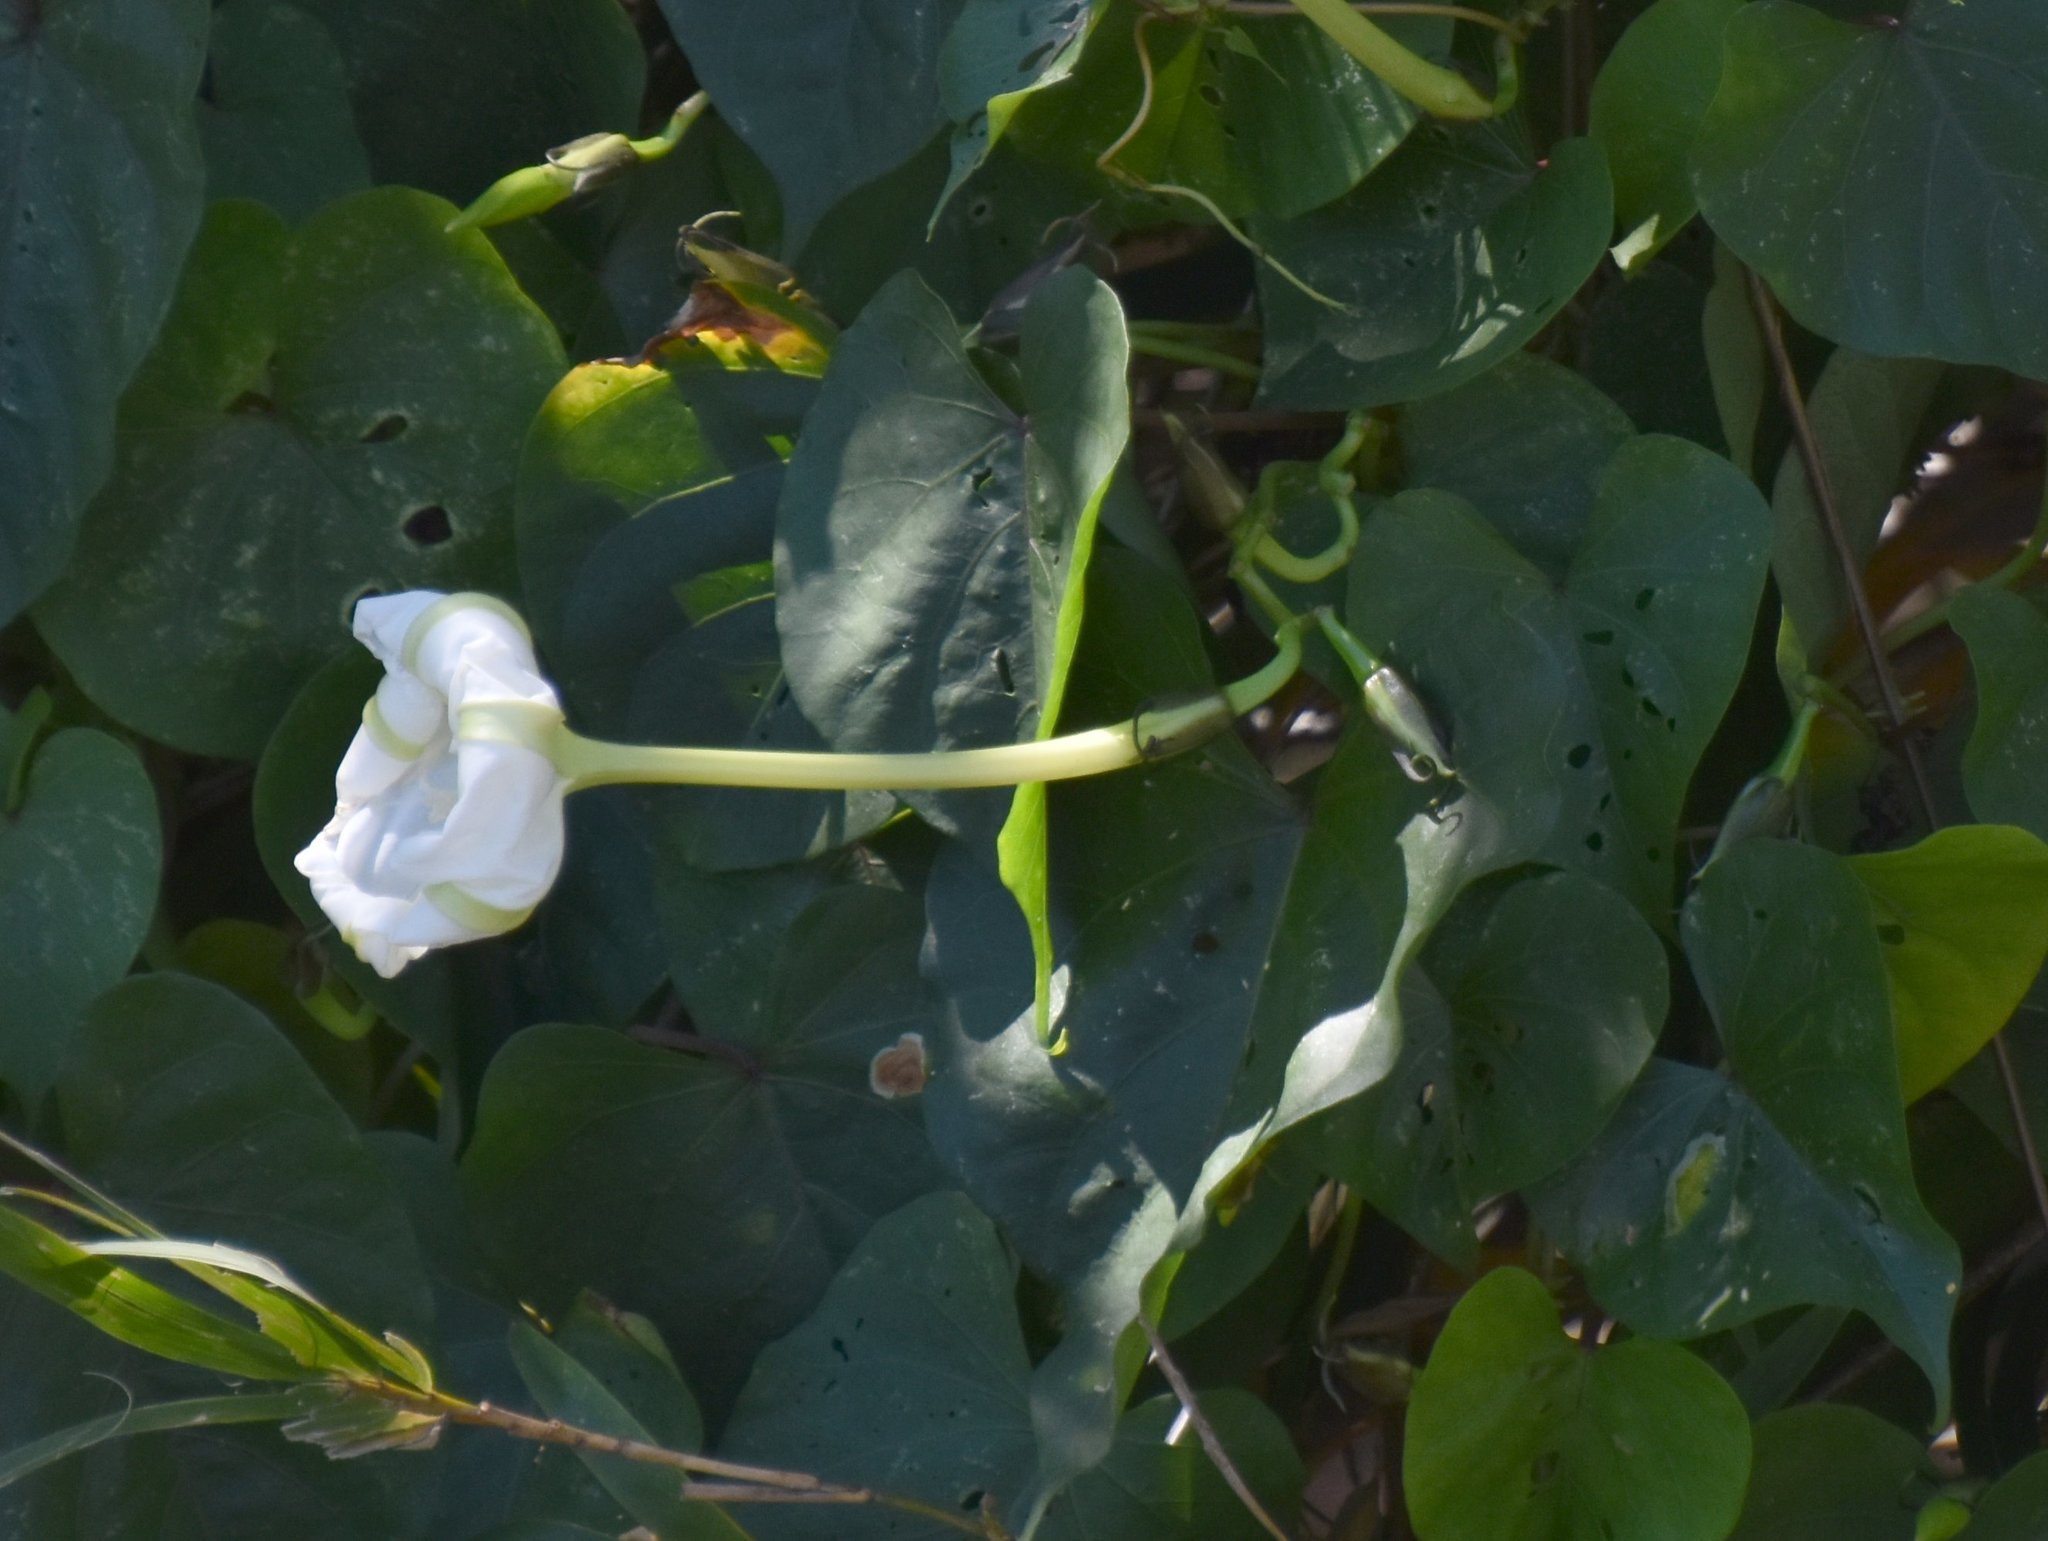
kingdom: Plantae
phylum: Tracheophyta
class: Magnoliopsida
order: Solanales
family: Convolvulaceae
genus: Ipomoea
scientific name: Ipomoea alba
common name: Moonflower
